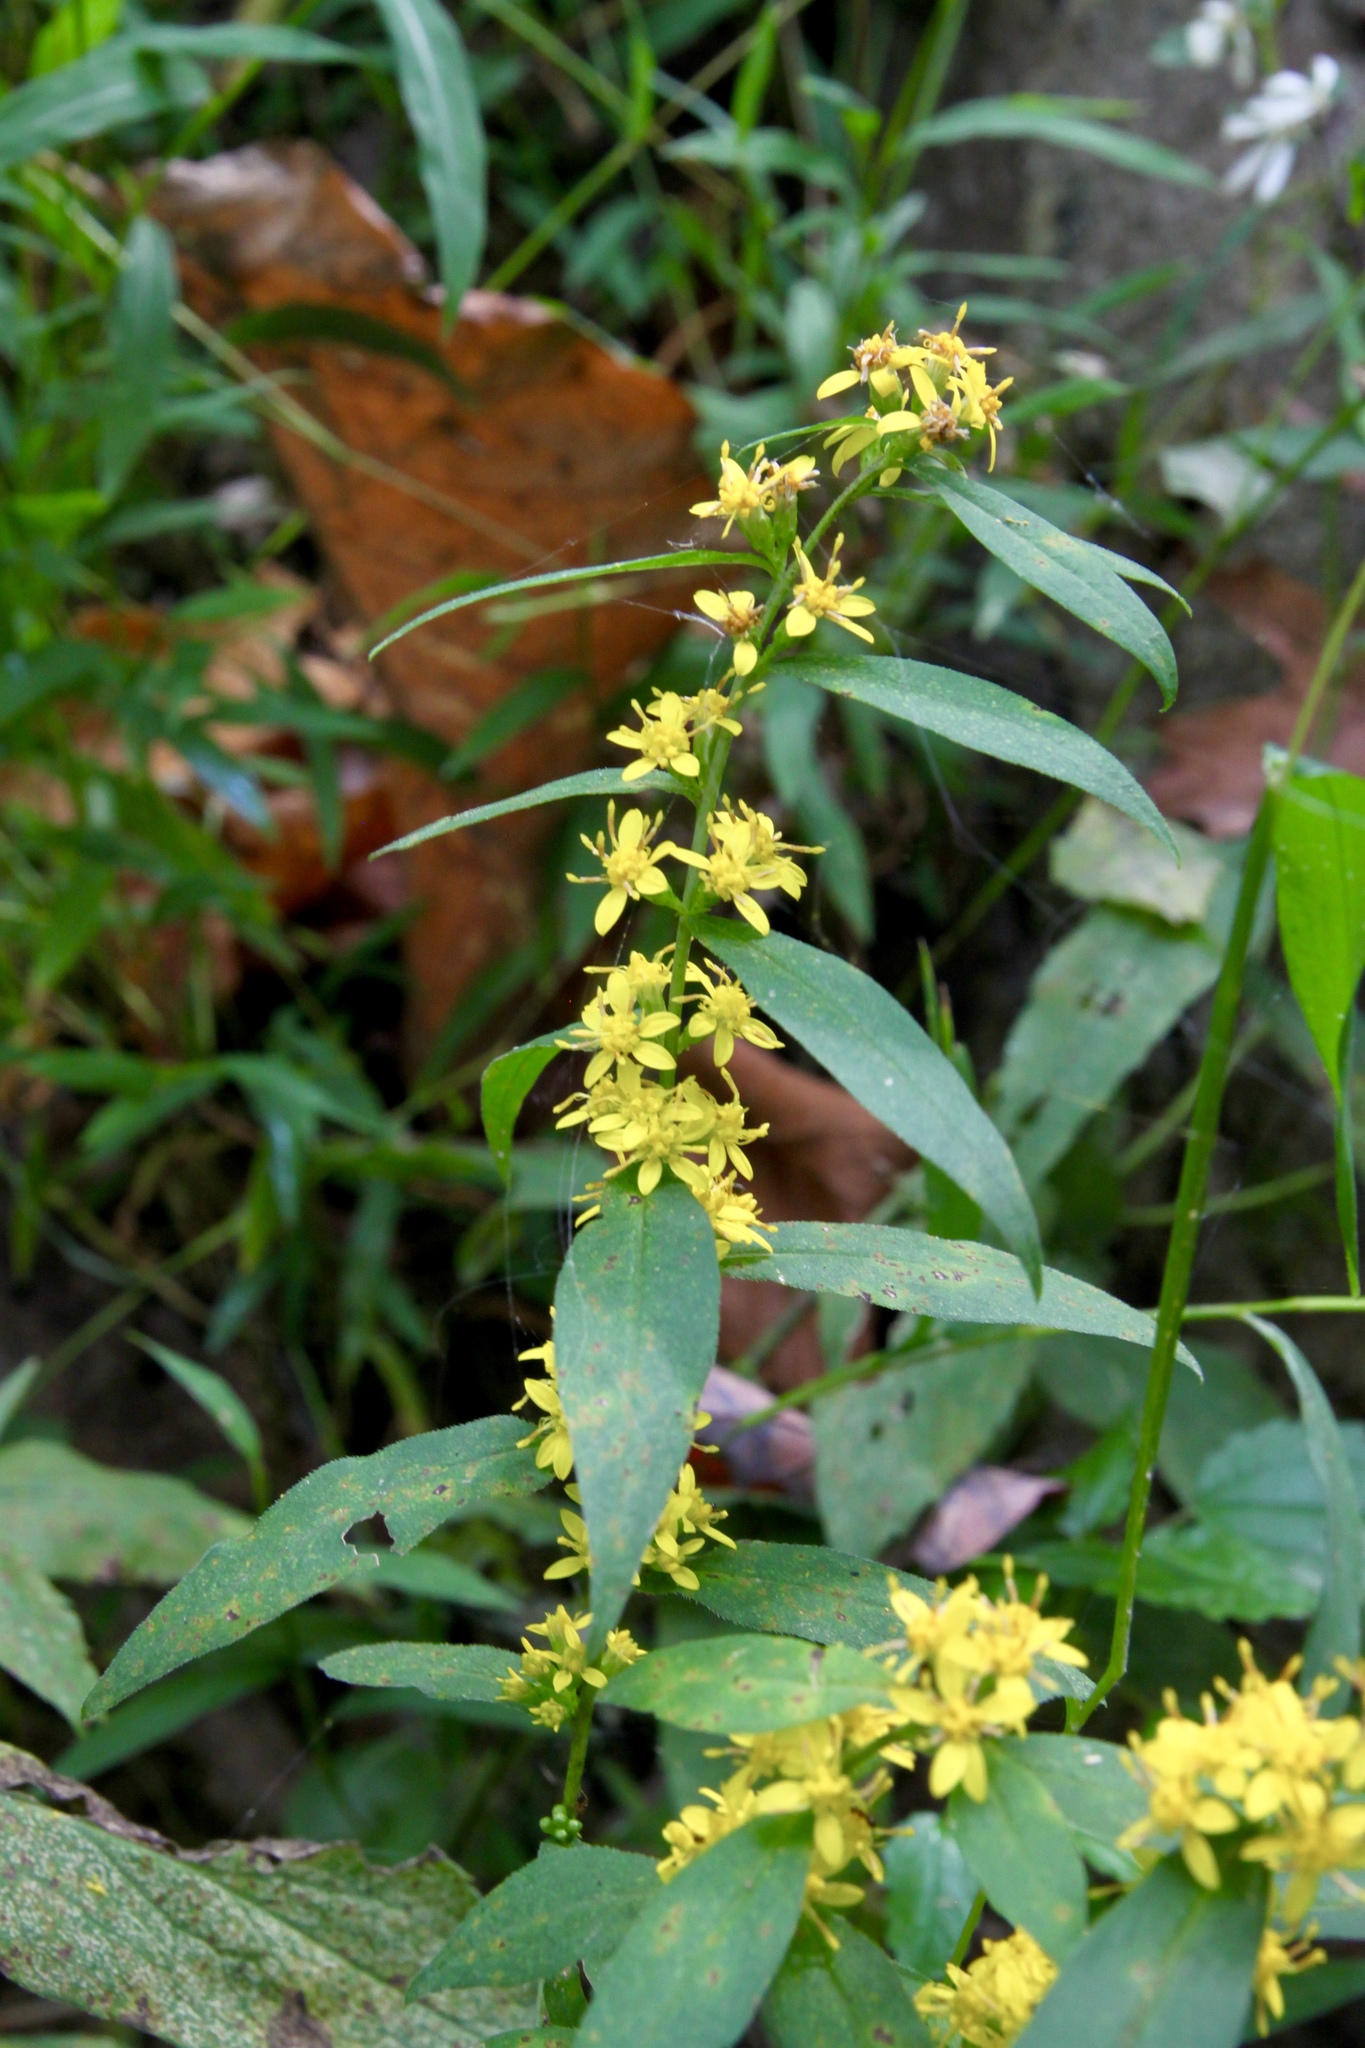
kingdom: Plantae
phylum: Tracheophyta
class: Magnoliopsida
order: Asterales
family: Asteraceae
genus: Solidago
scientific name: Solidago caesia
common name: Woodland goldenrod
